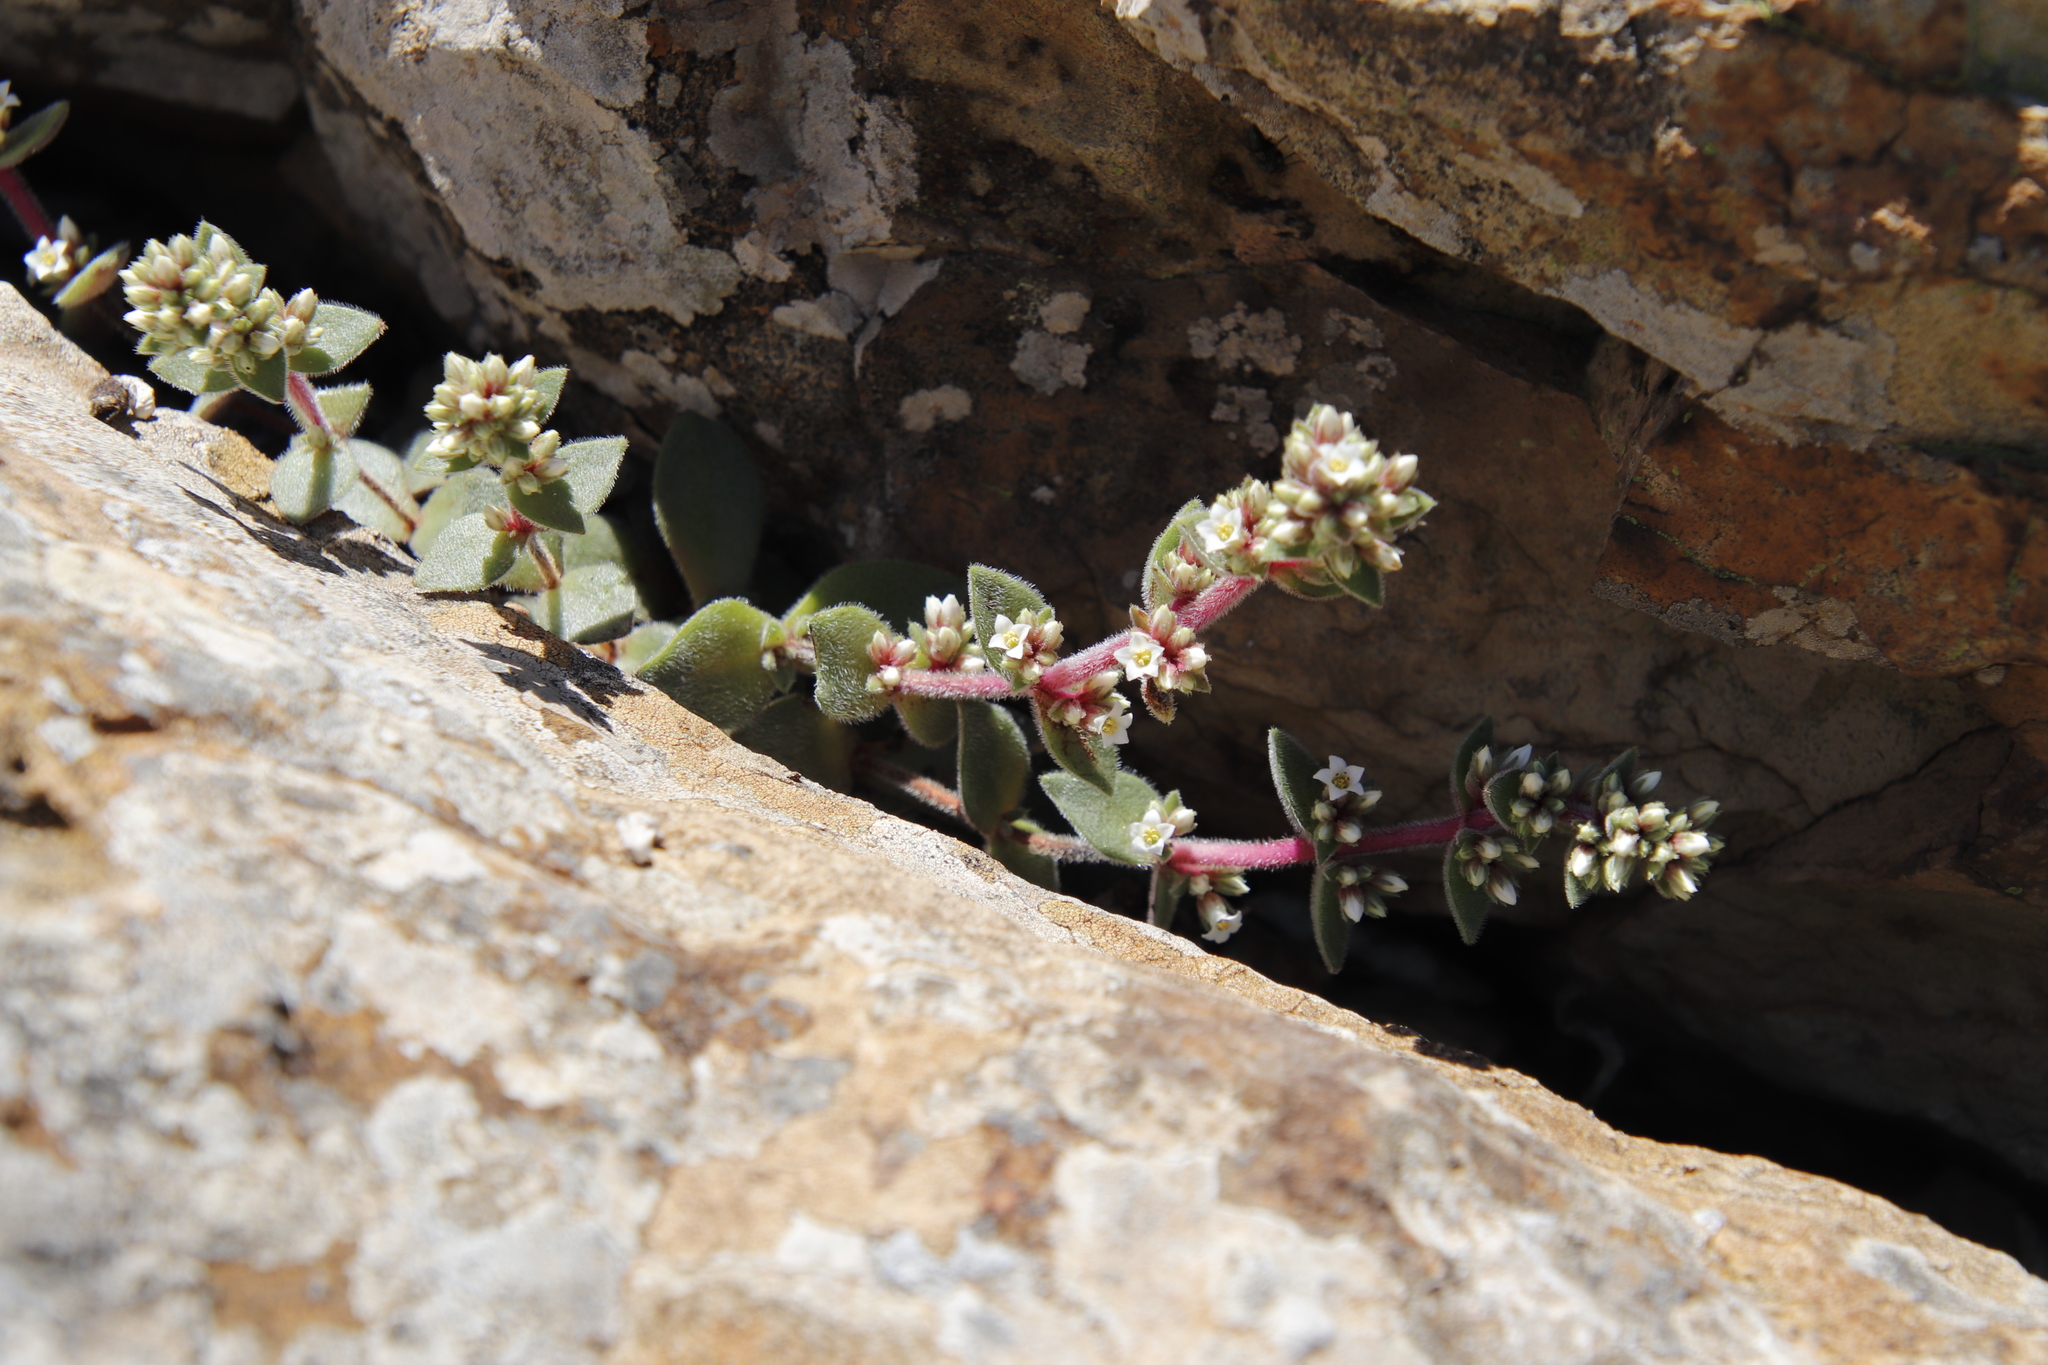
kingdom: Plantae
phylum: Tracheophyta
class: Magnoliopsida
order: Saxifragales
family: Crassulaceae
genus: Crassula
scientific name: Crassula obovata
